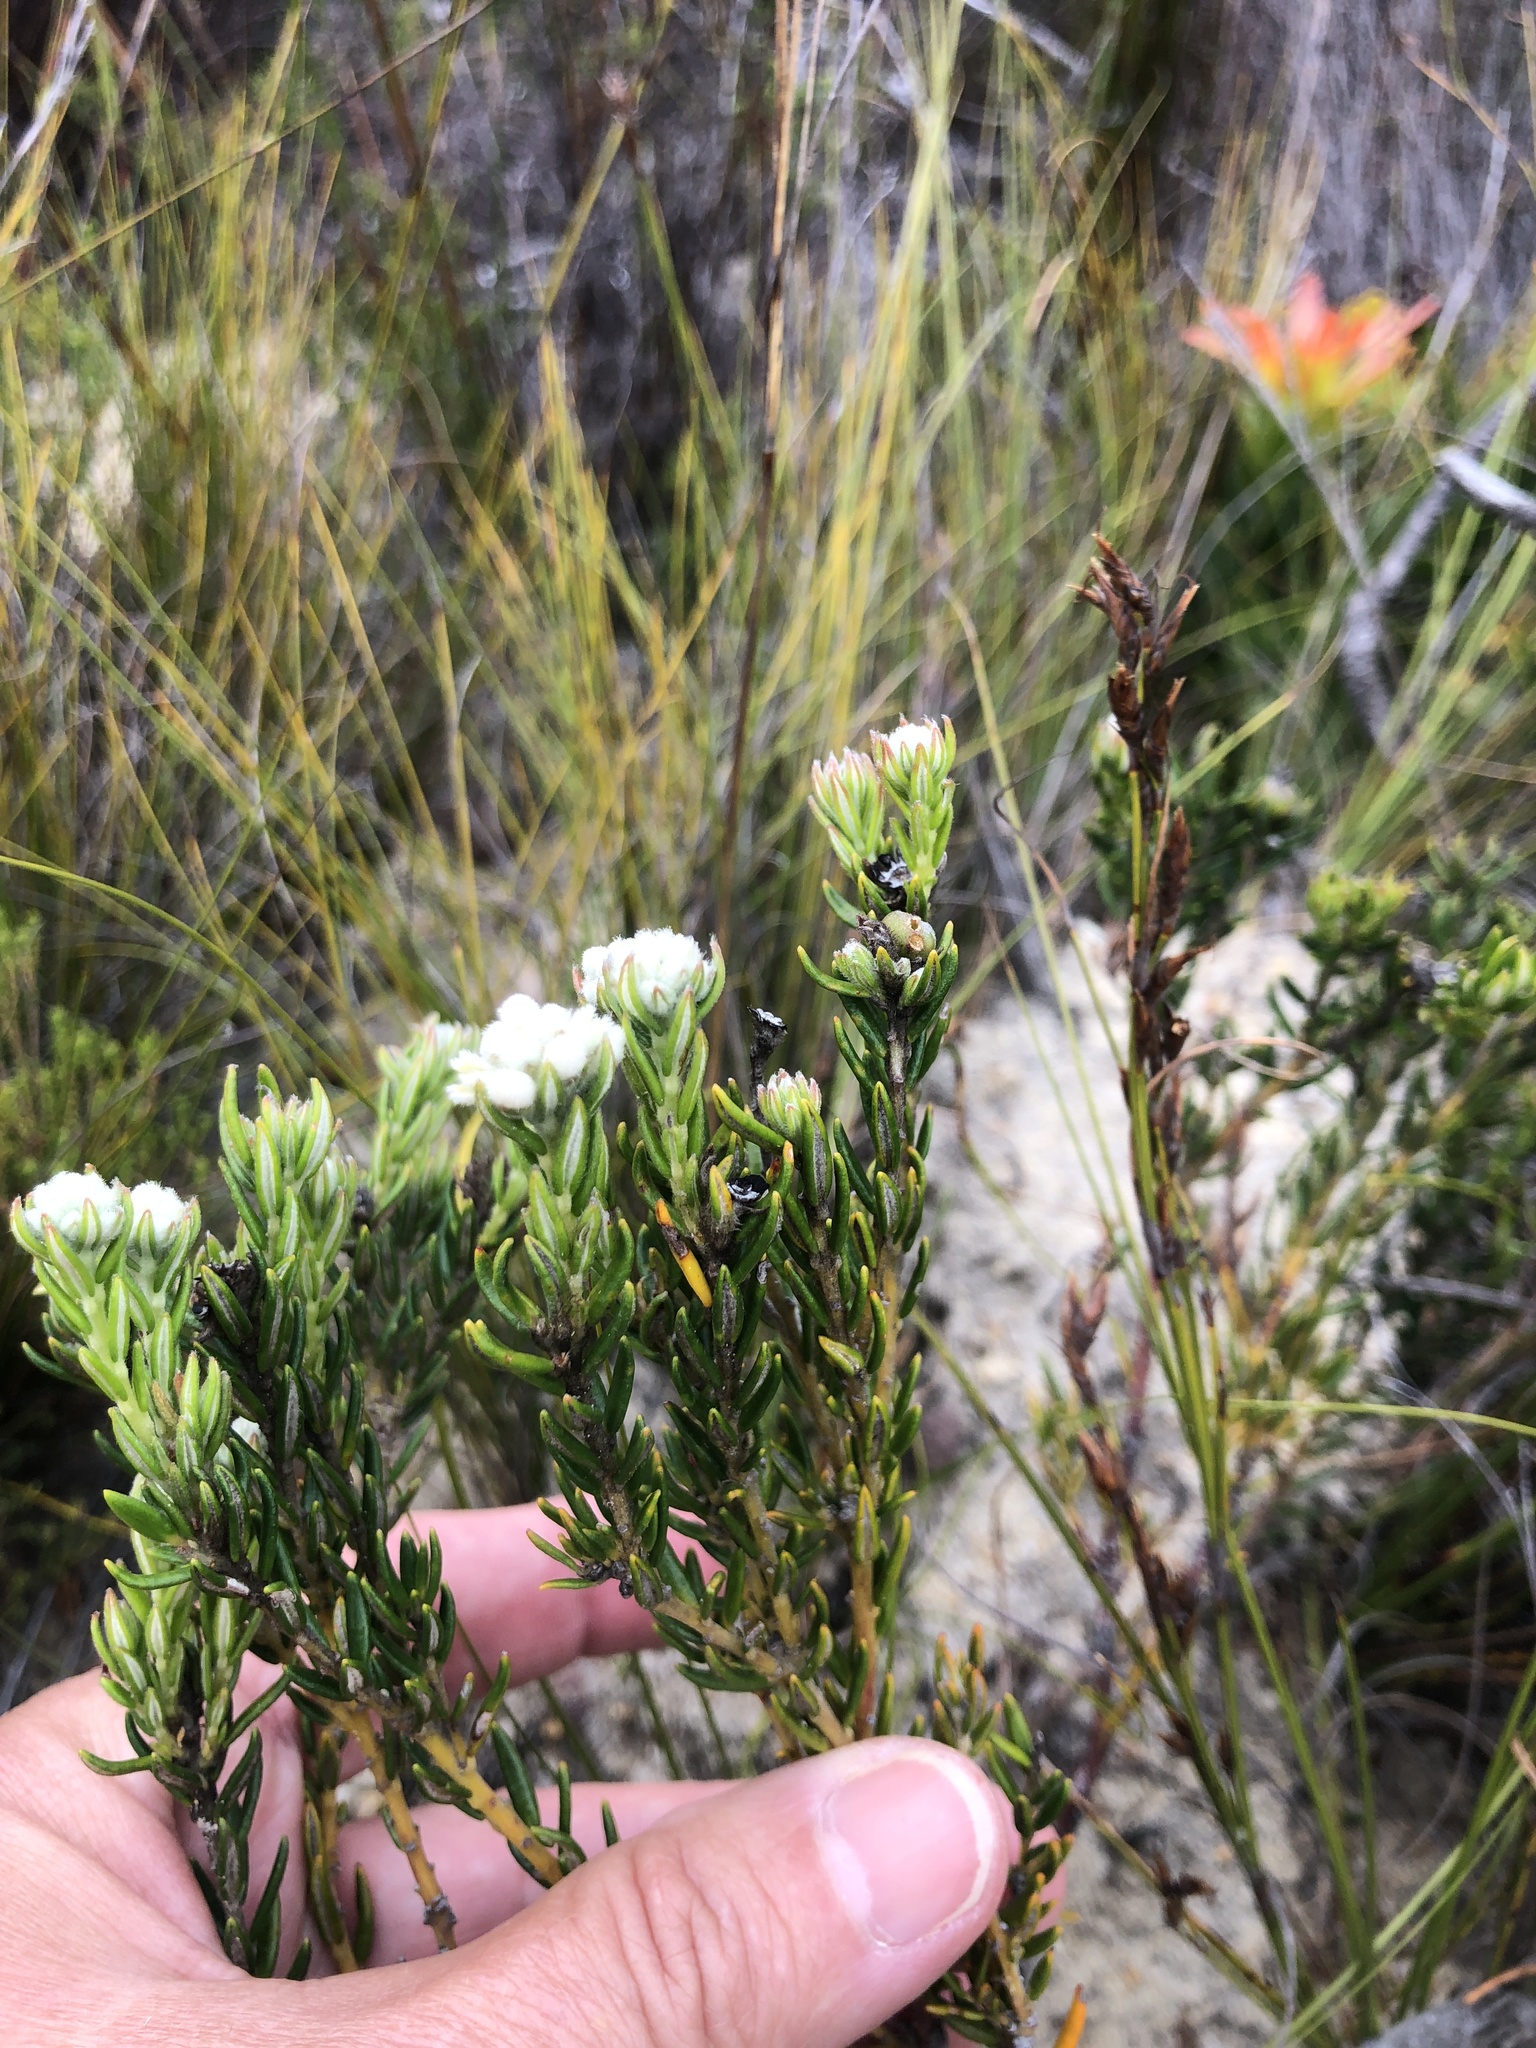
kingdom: Plantae
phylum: Tracheophyta
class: Magnoliopsida
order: Rosales
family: Rhamnaceae
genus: Phylica
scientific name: Phylica imberbis
